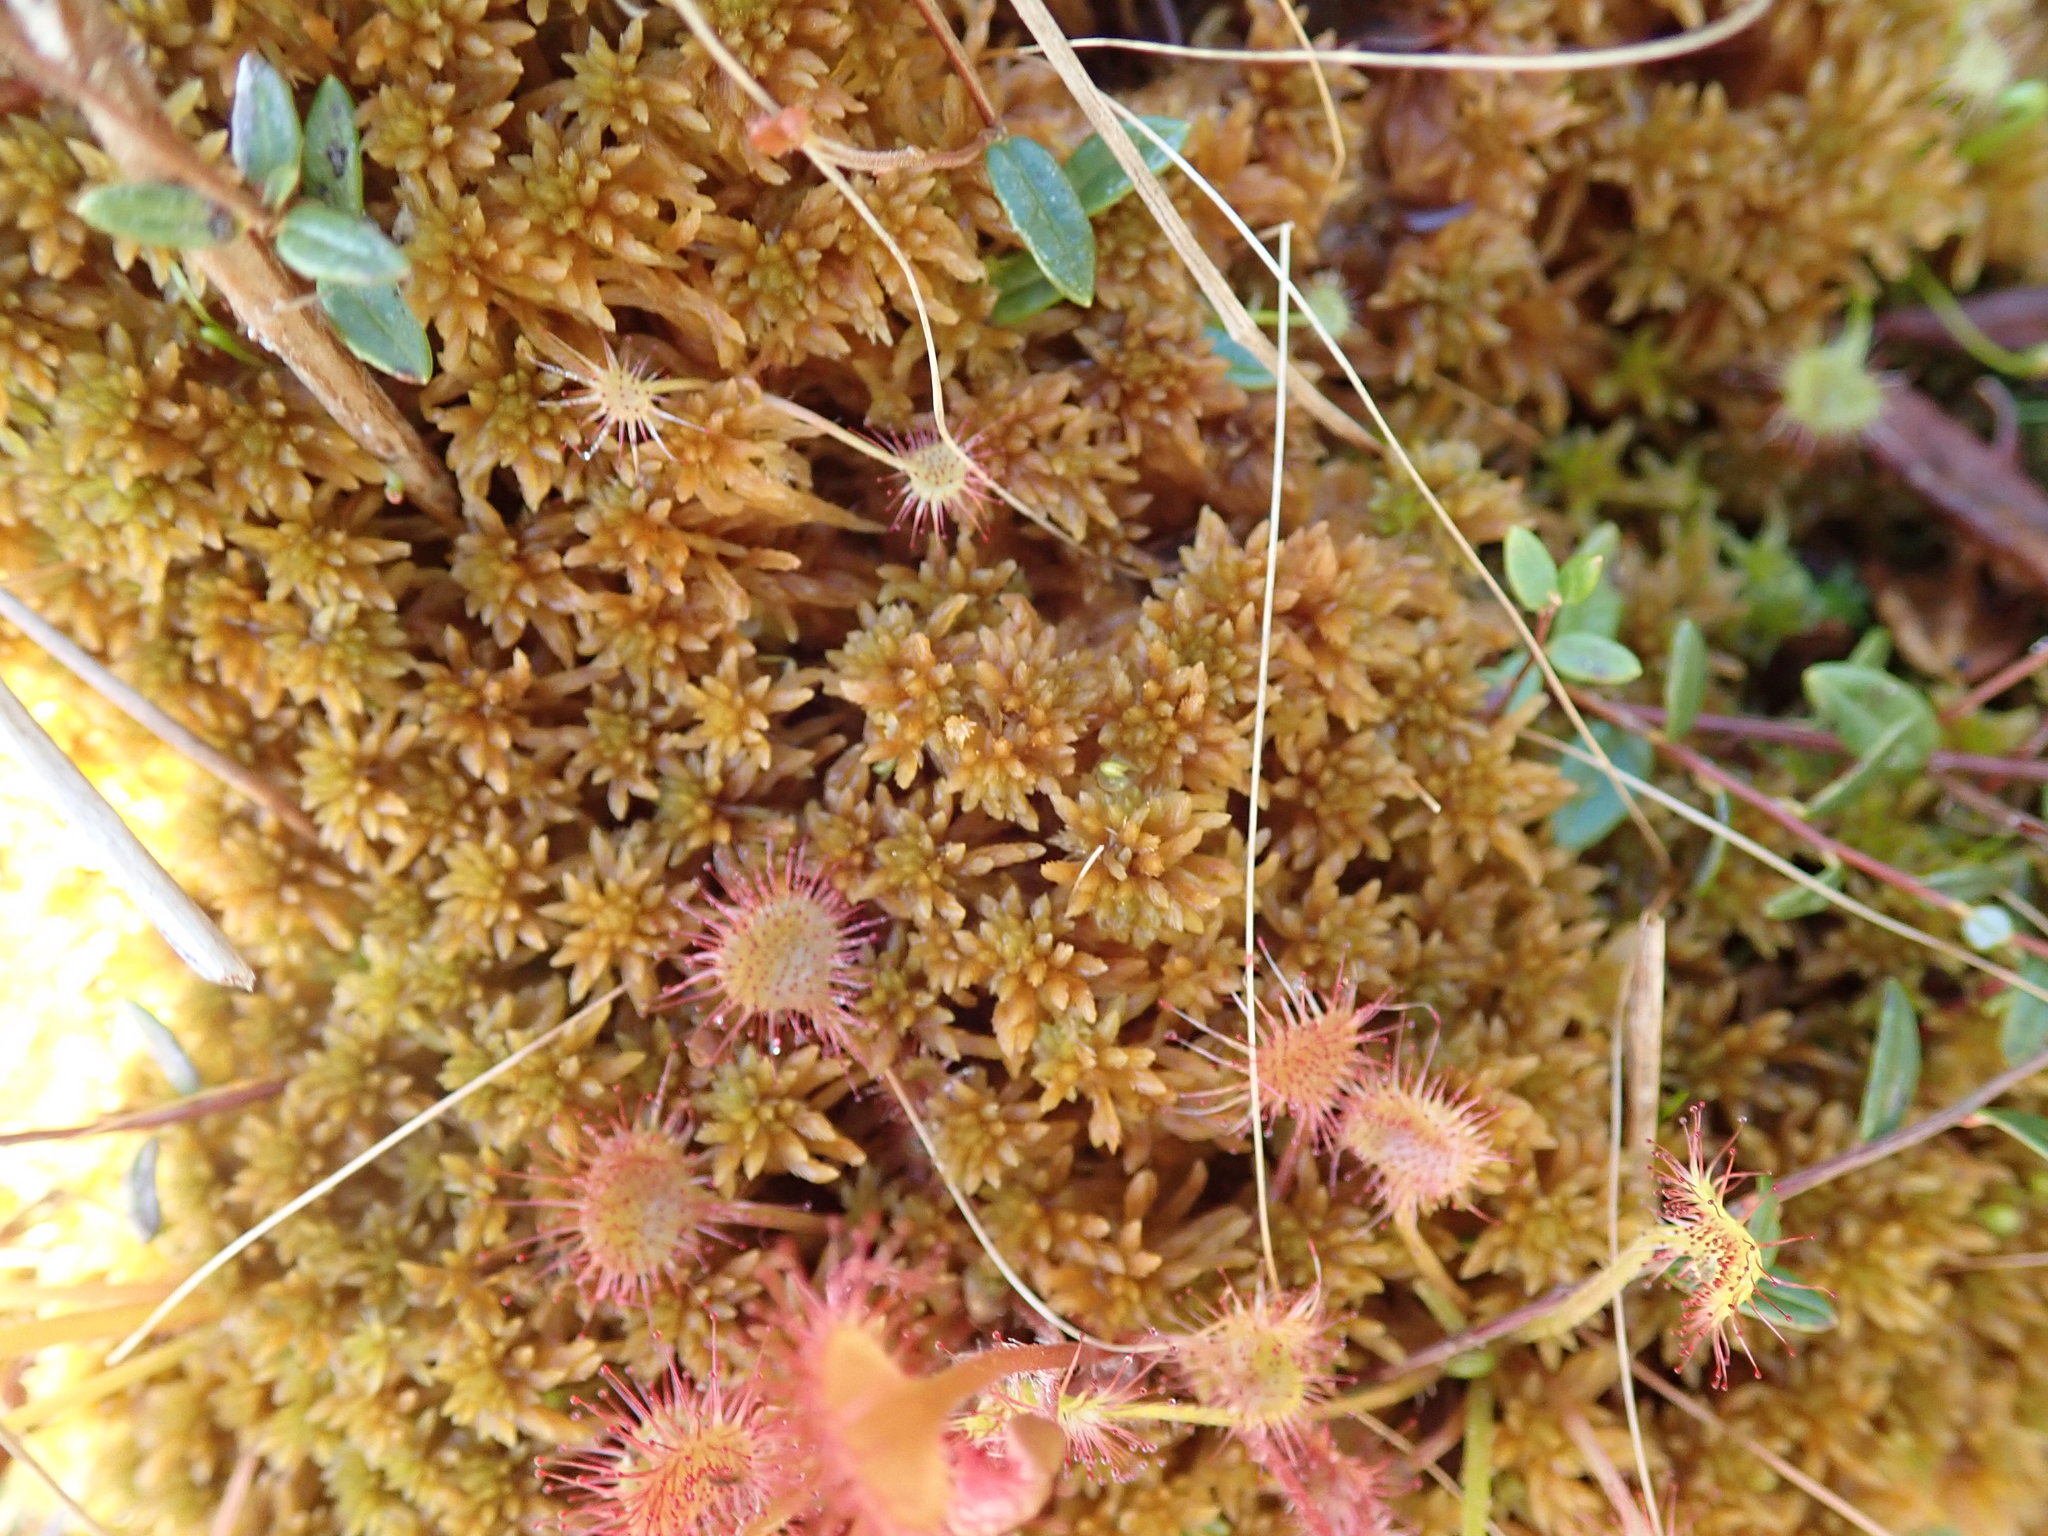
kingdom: Plantae
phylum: Bryophyta
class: Sphagnopsida
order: Sphagnales
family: Sphagnaceae
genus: Sphagnum
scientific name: Sphagnum fuscum
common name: Brown peat moss
